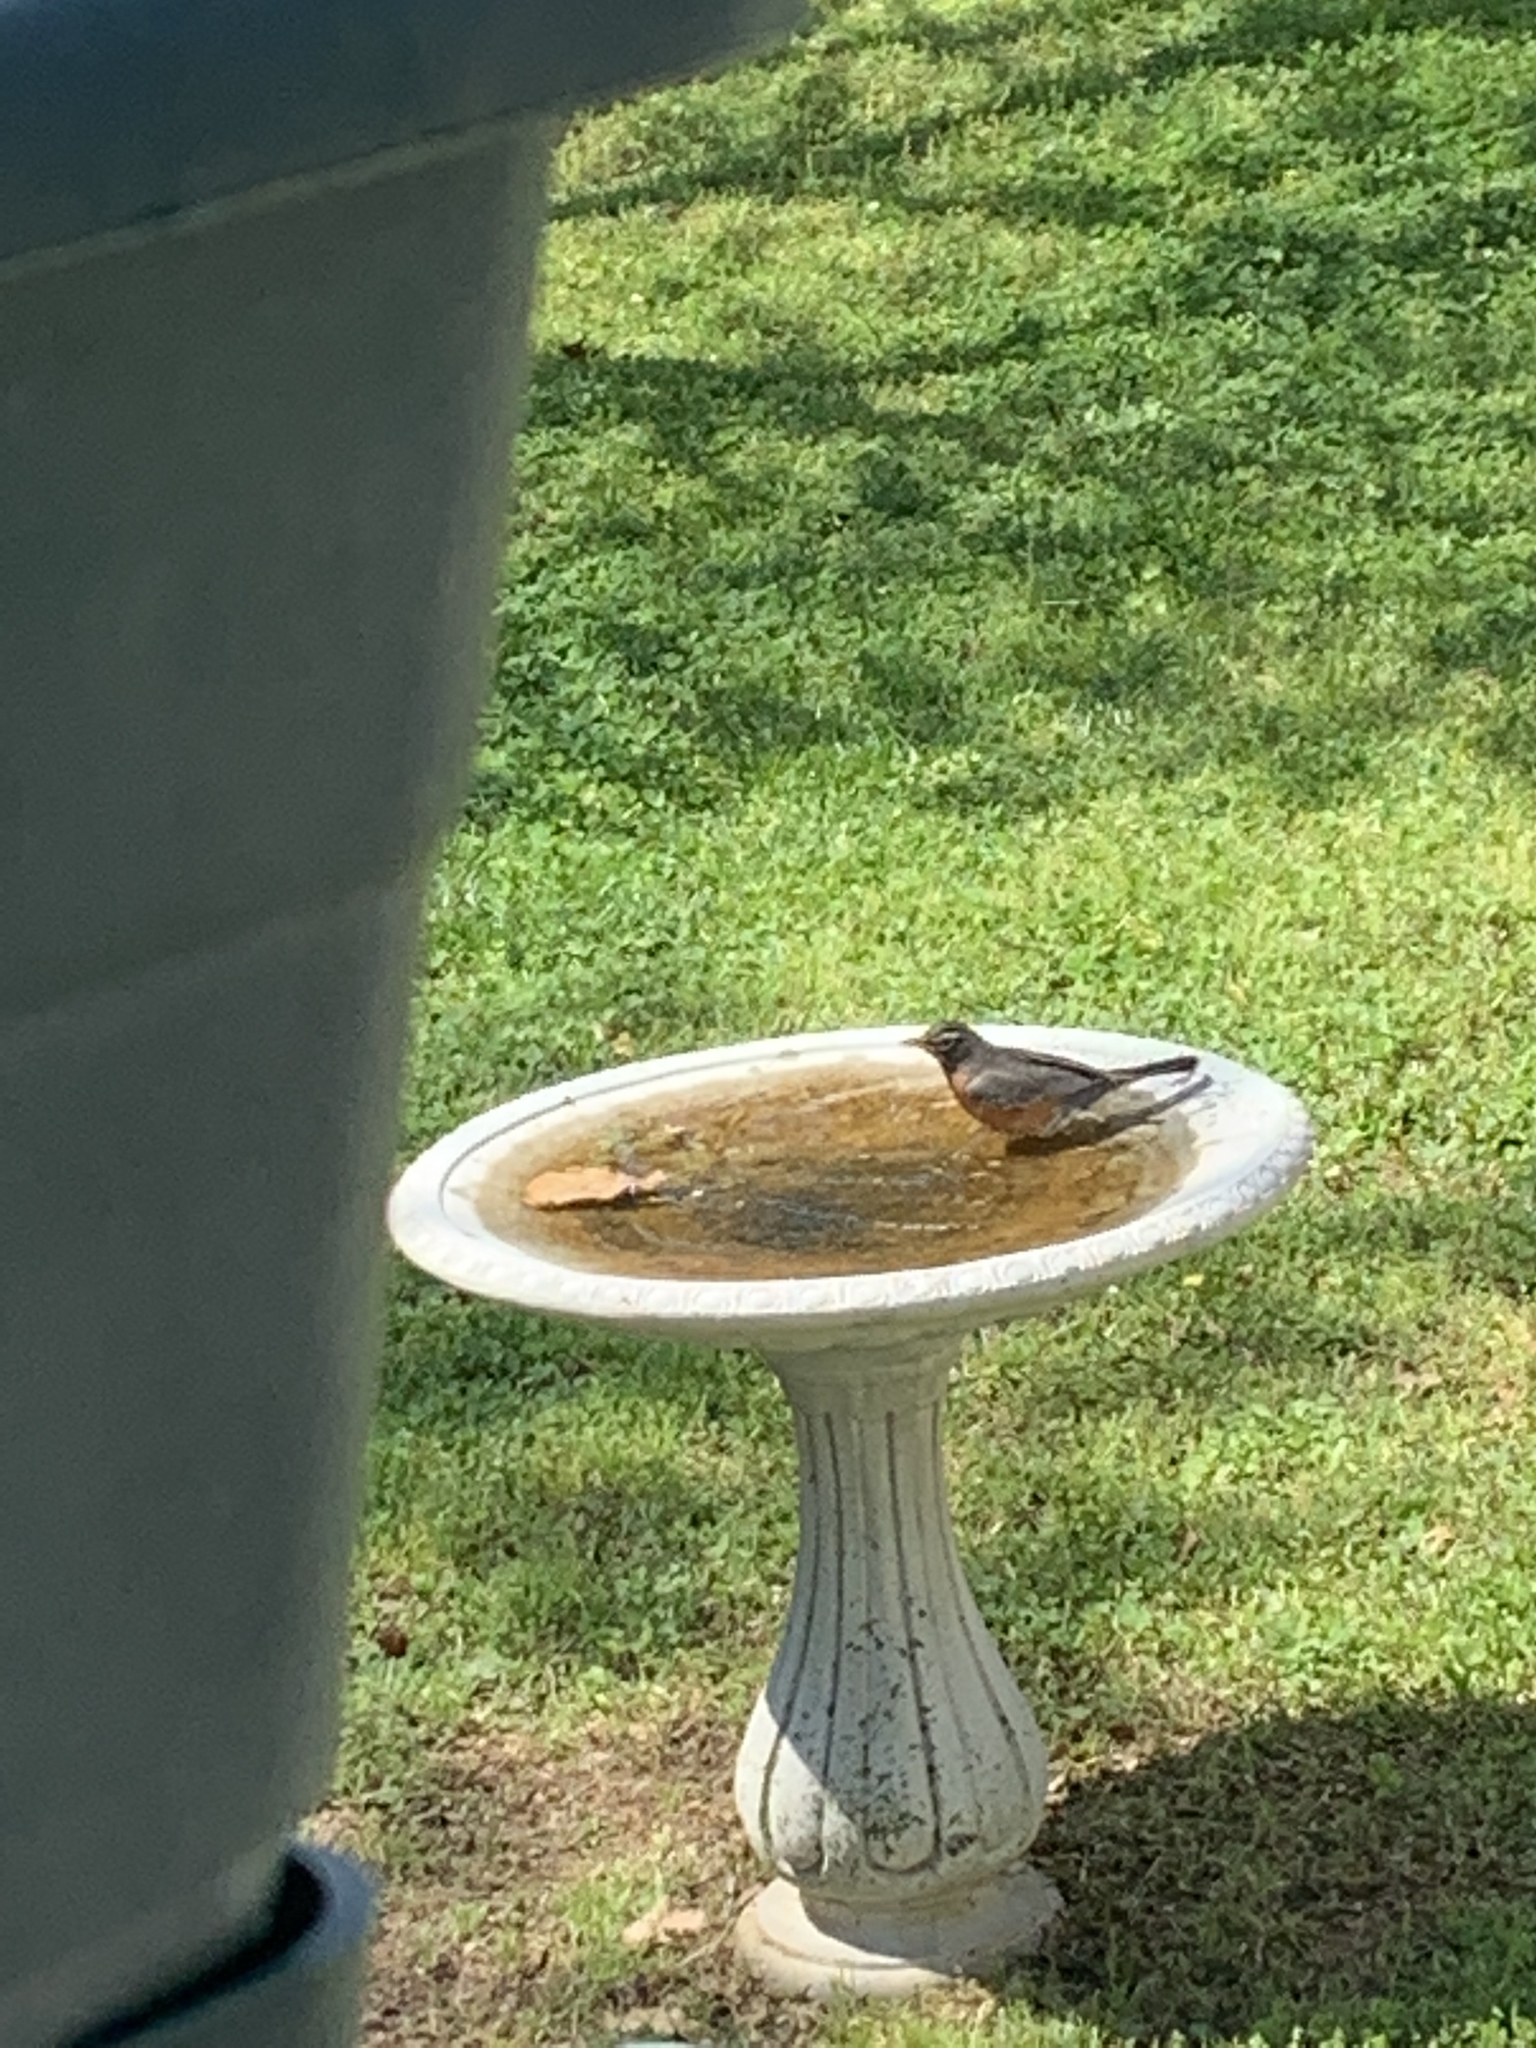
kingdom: Animalia
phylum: Chordata
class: Aves
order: Passeriformes
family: Turdidae
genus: Turdus
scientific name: Turdus migratorius
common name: American robin
